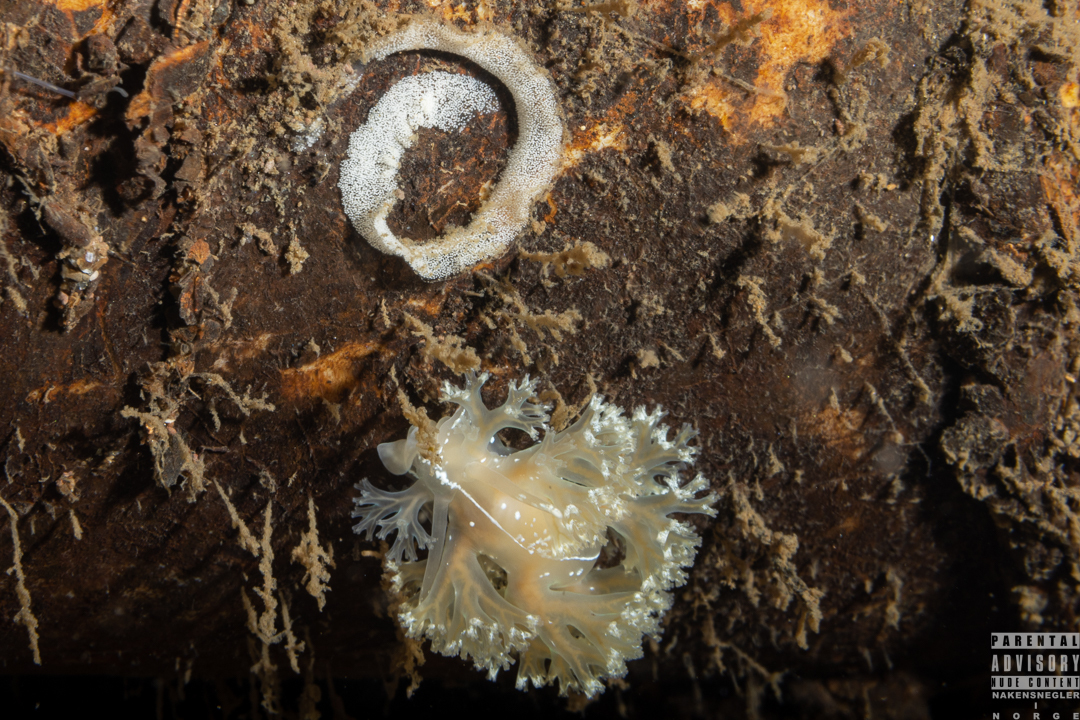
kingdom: Animalia
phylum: Mollusca
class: Gastropoda
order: Nudibranchia
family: Heroidae
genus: Hero
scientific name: Hero formosa
